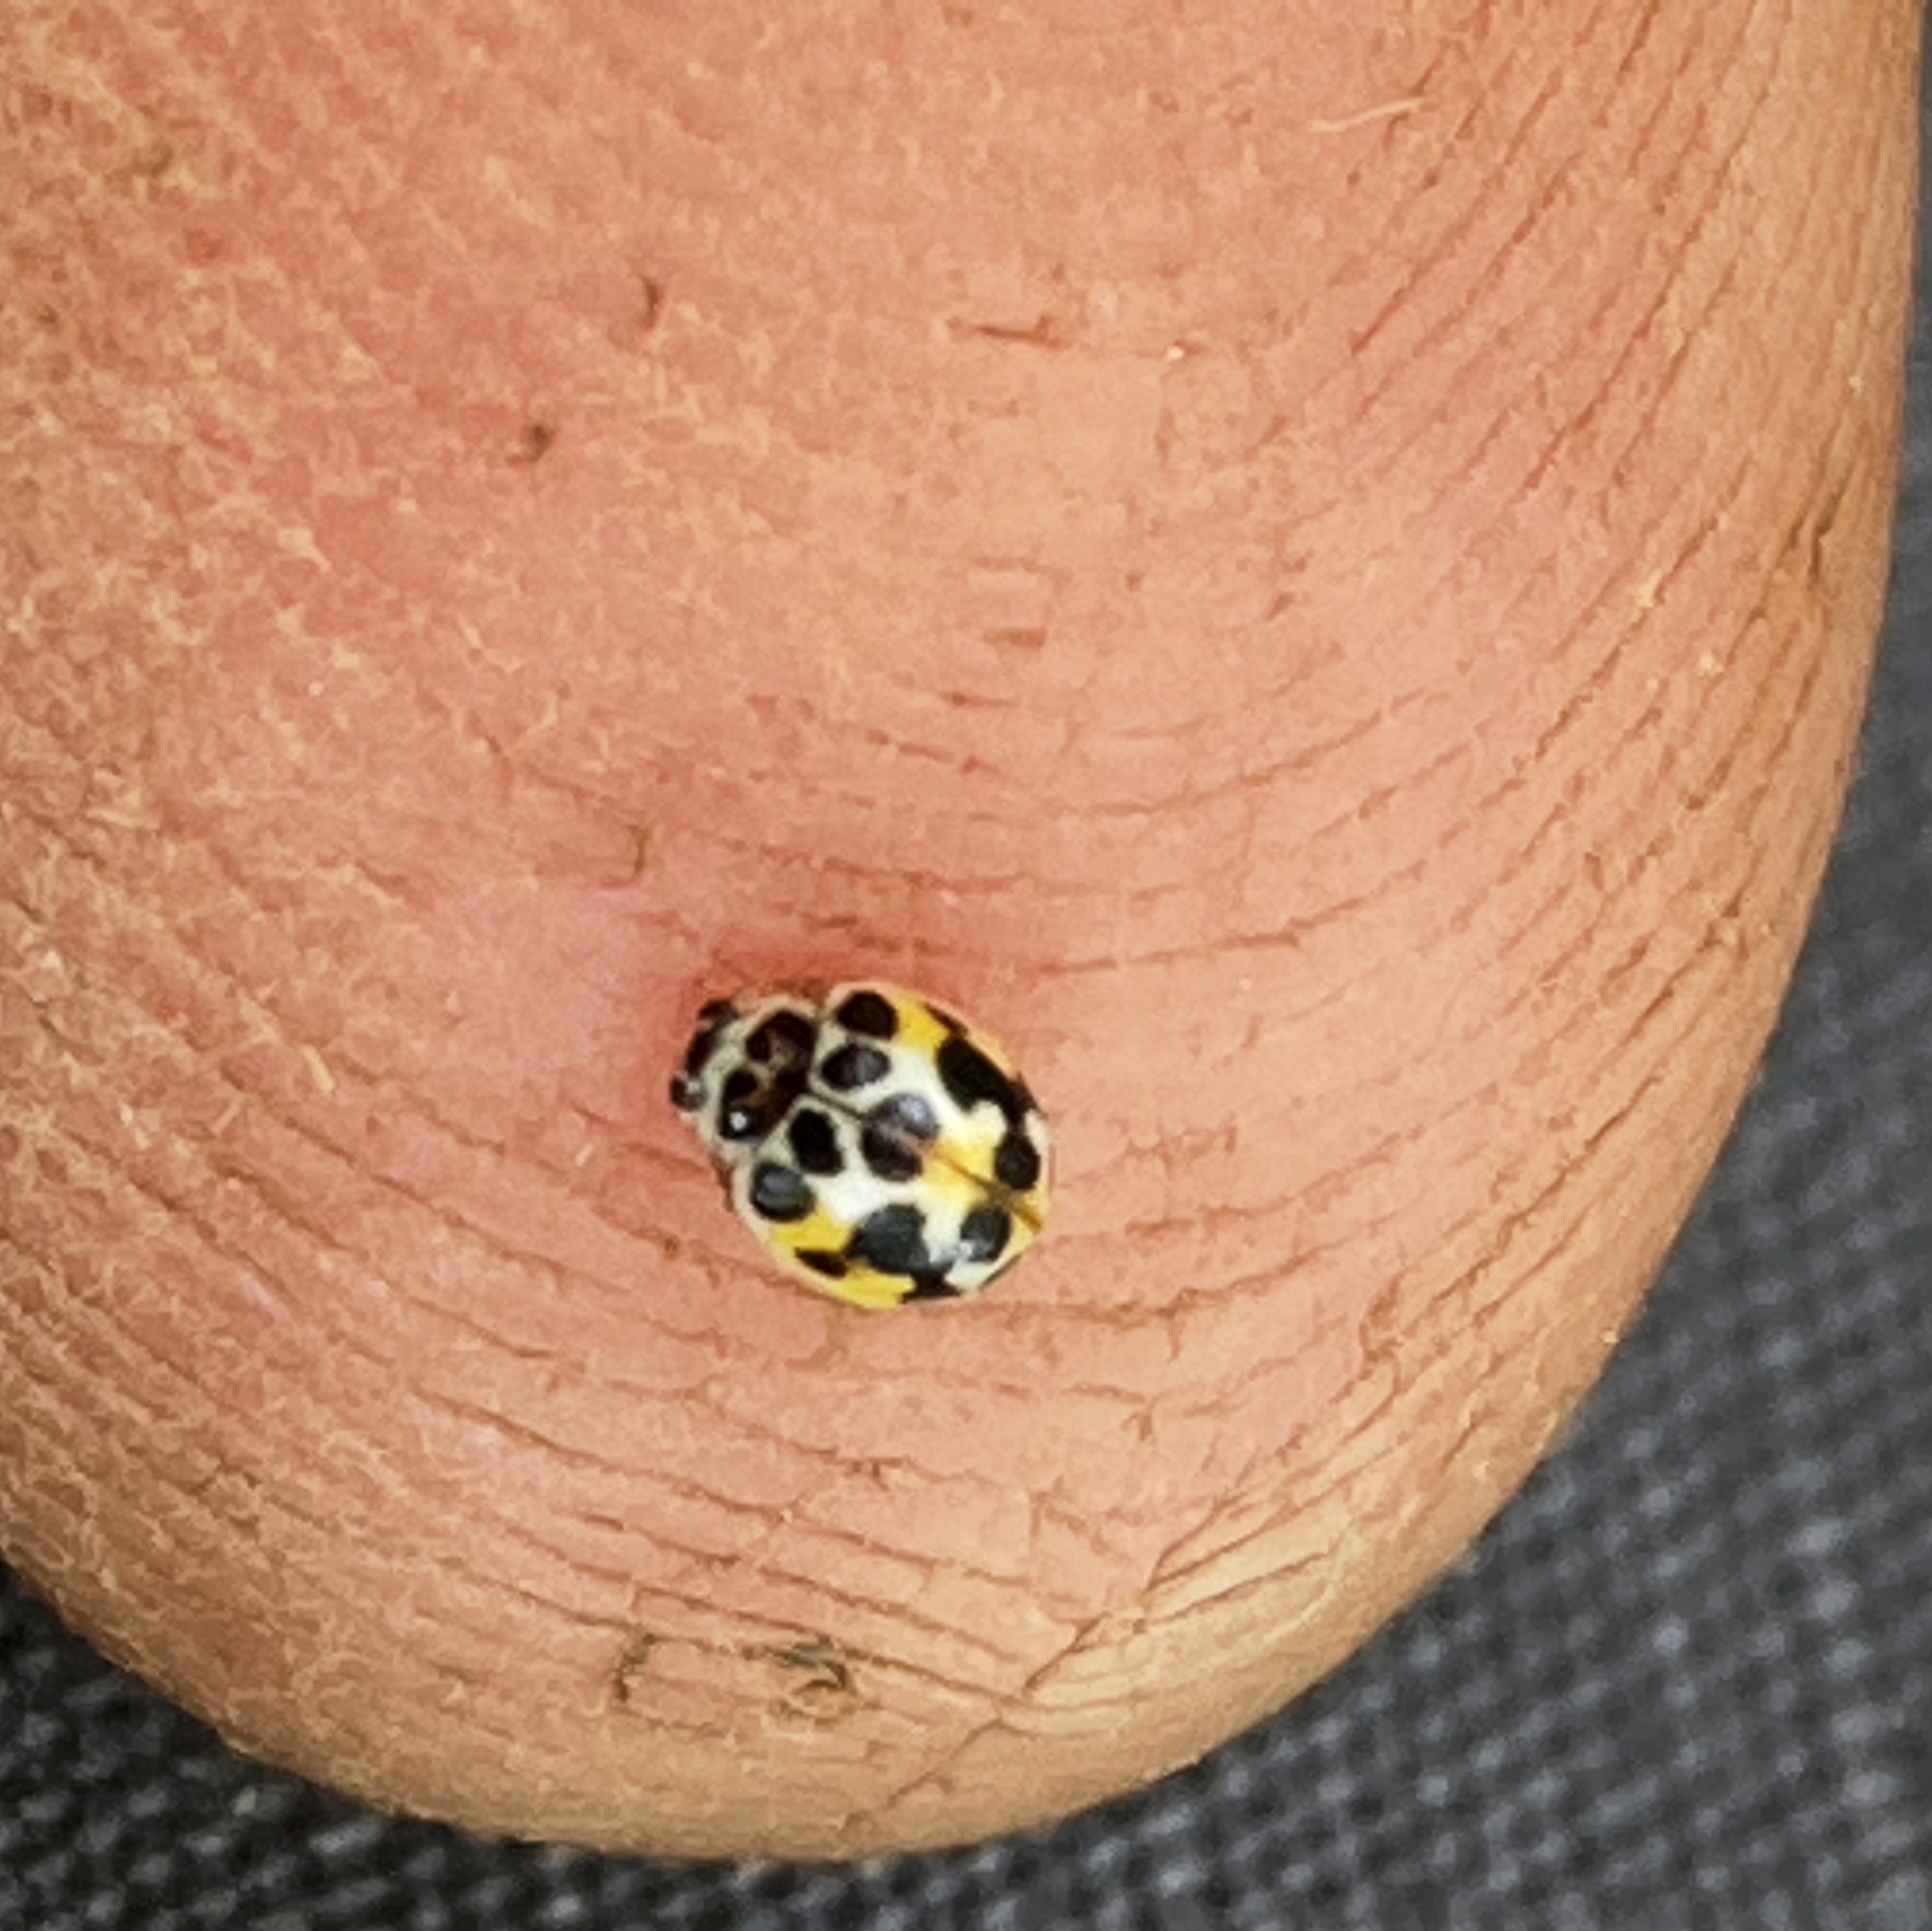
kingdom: Animalia
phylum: Arthropoda
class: Insecta
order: Coleoptera
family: Coccinellidae
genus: Psyllobora
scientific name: Psyllobora vigintimaculata
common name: Ladybird beetle
